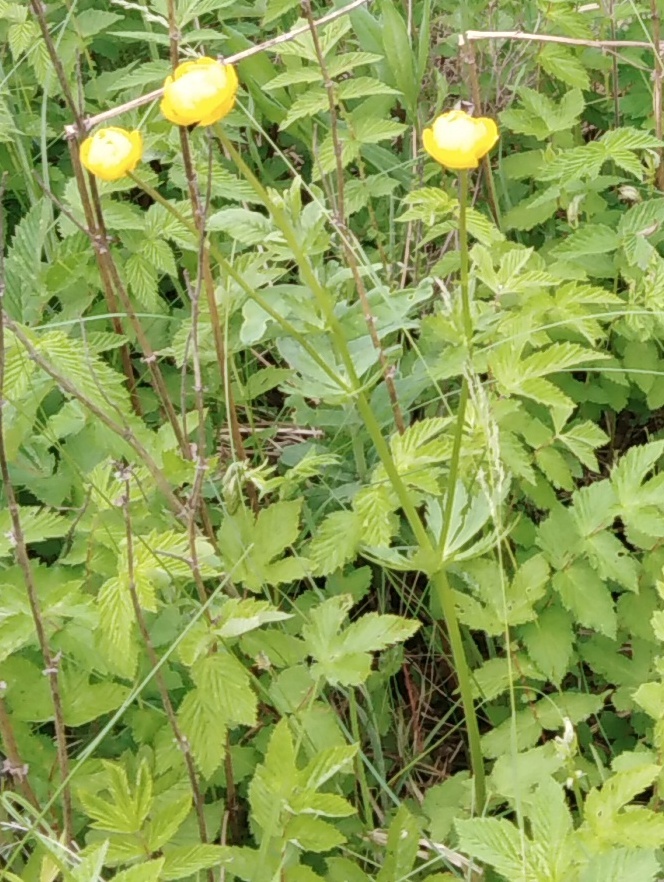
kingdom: Plantae
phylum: Tracheophyta
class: Magnoliopsida
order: Ranunculales
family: Ranunculaceae
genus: Trollius
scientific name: Trollius europaeus
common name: European globeflower
